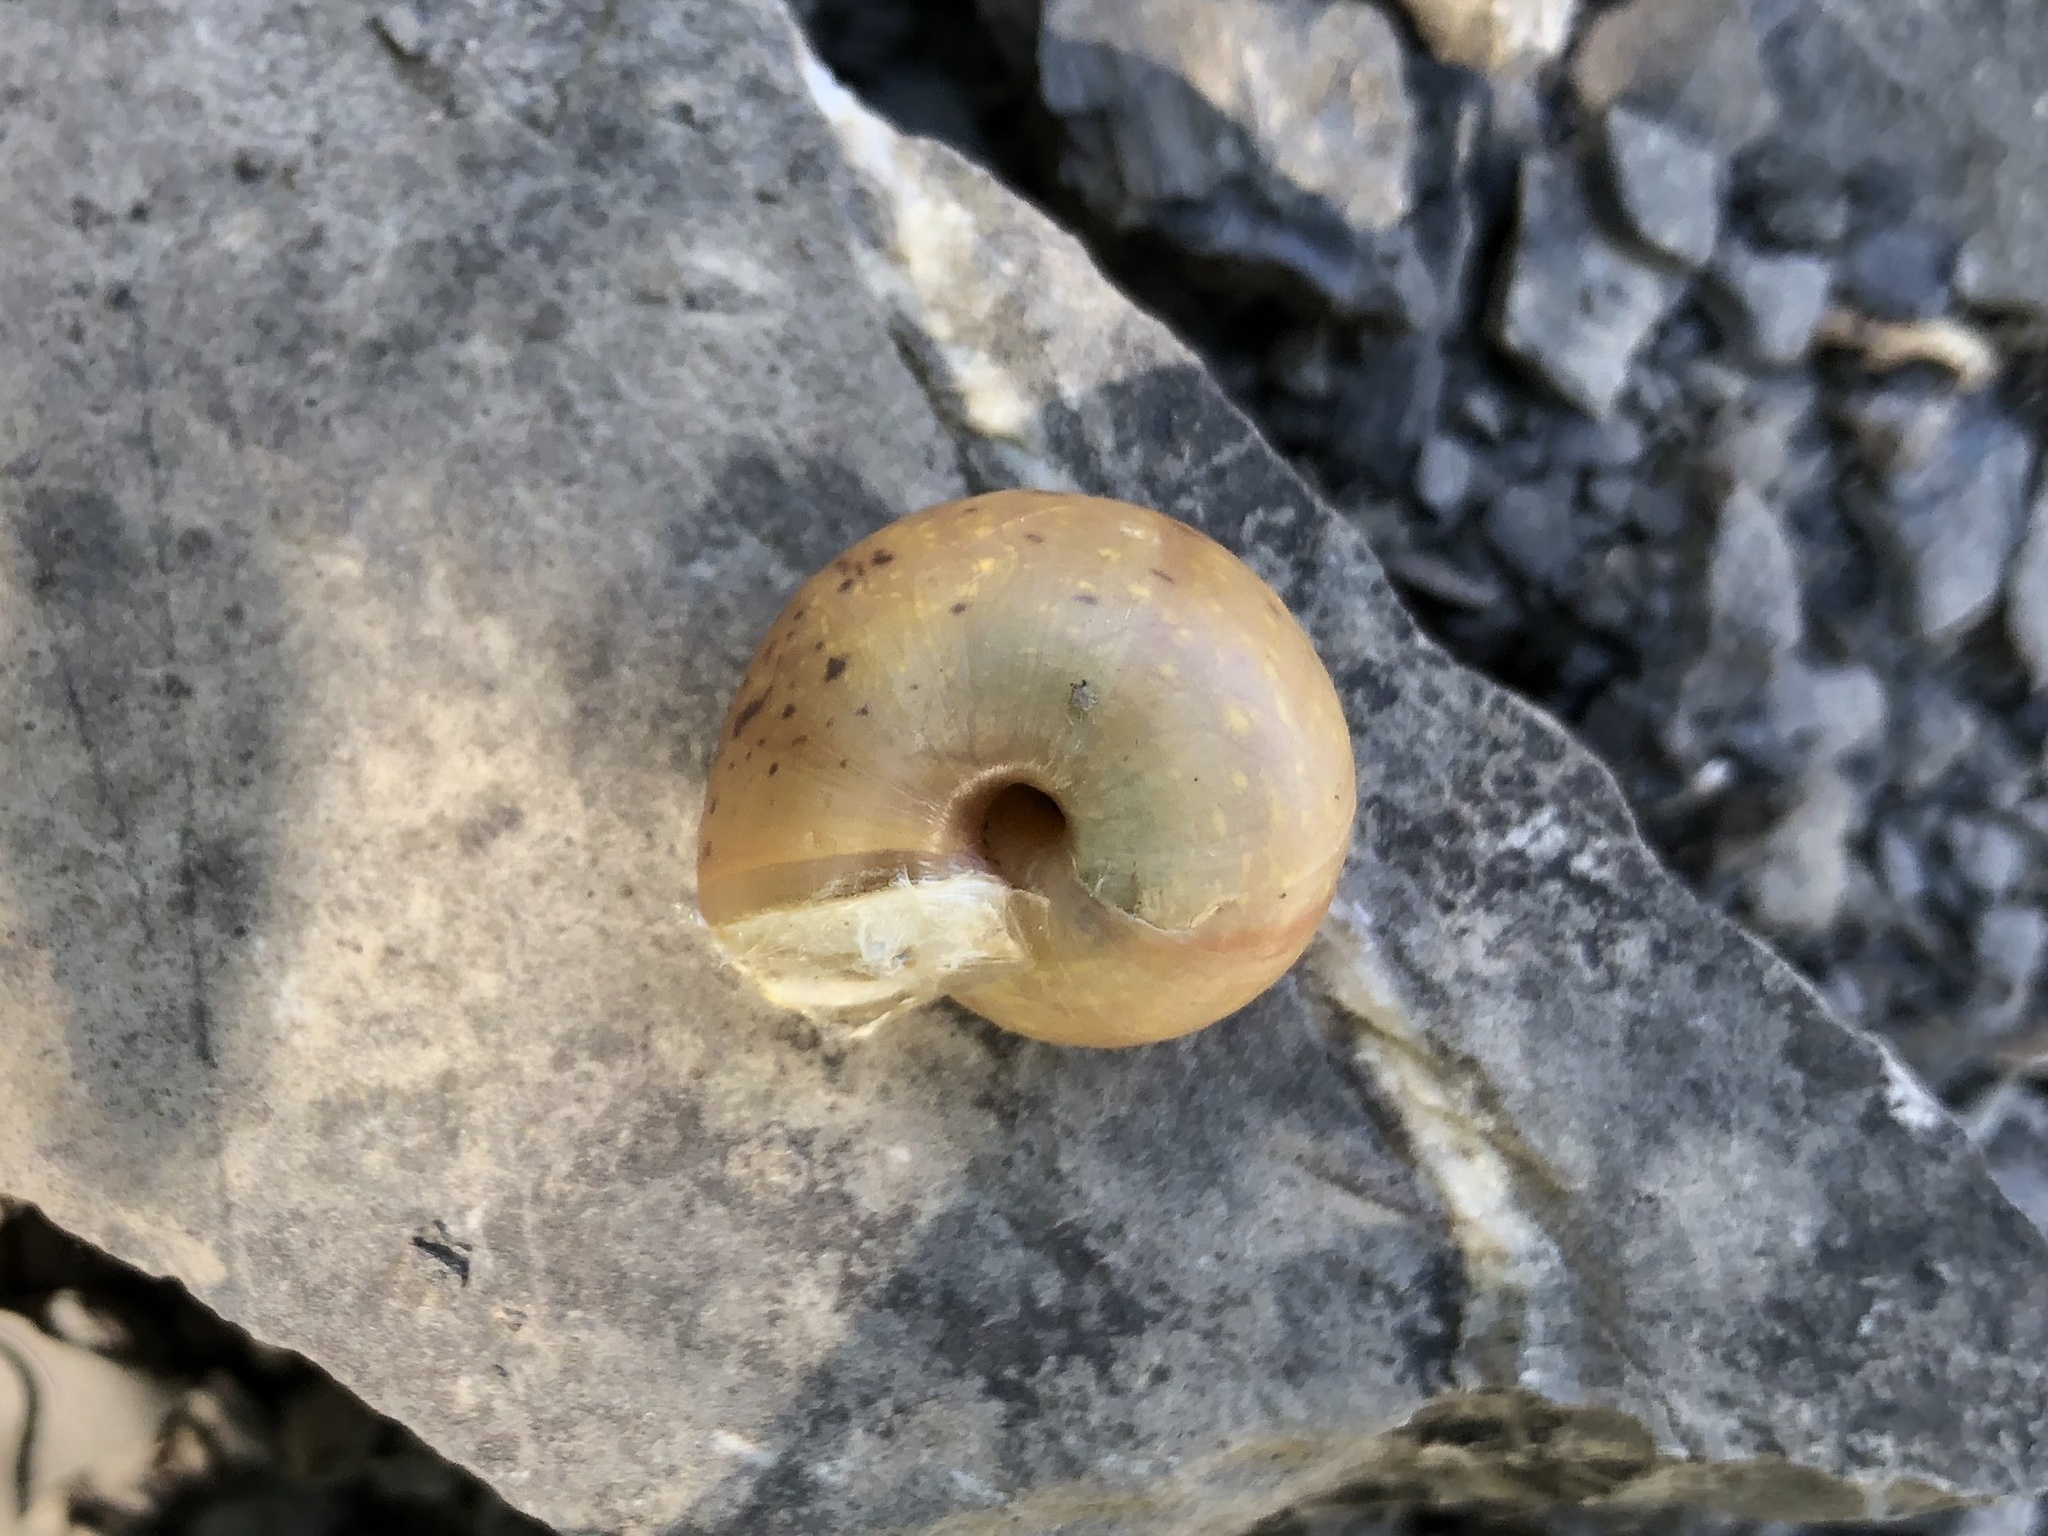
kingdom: Animalia
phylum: Mollusca
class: Gastropoda
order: Stylommatophora
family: Camaenidae
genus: Fruticicola
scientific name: Fruticicola fruticum
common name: Bush snail
